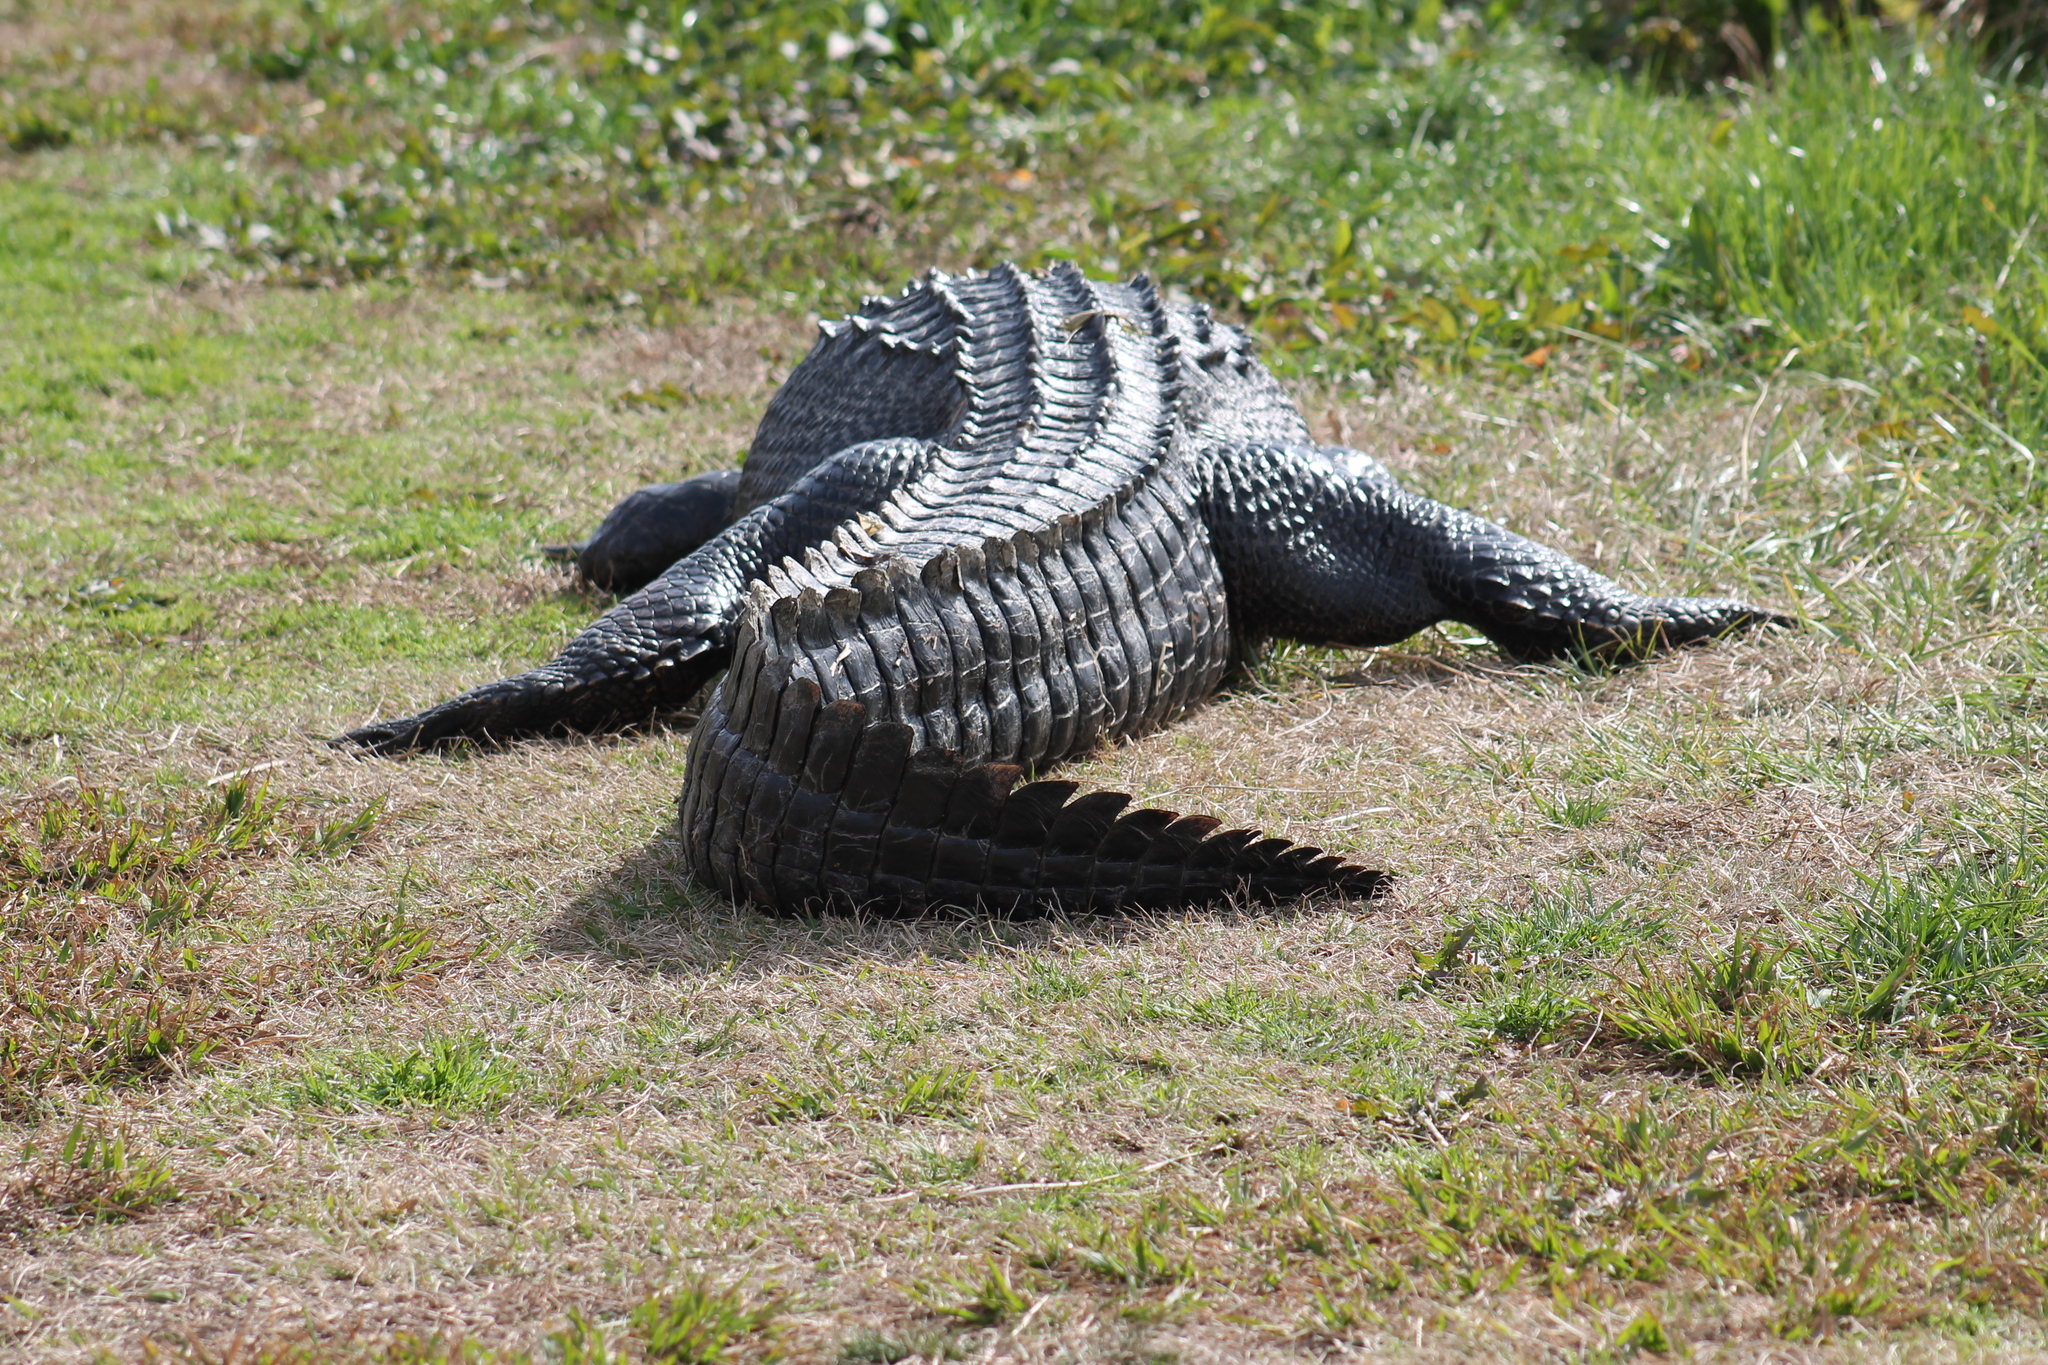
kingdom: Animalia
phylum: Chordata
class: Crocodylia
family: Alligatoridae
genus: Alligator
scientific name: Alligator mississippiensis
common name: American alligator
